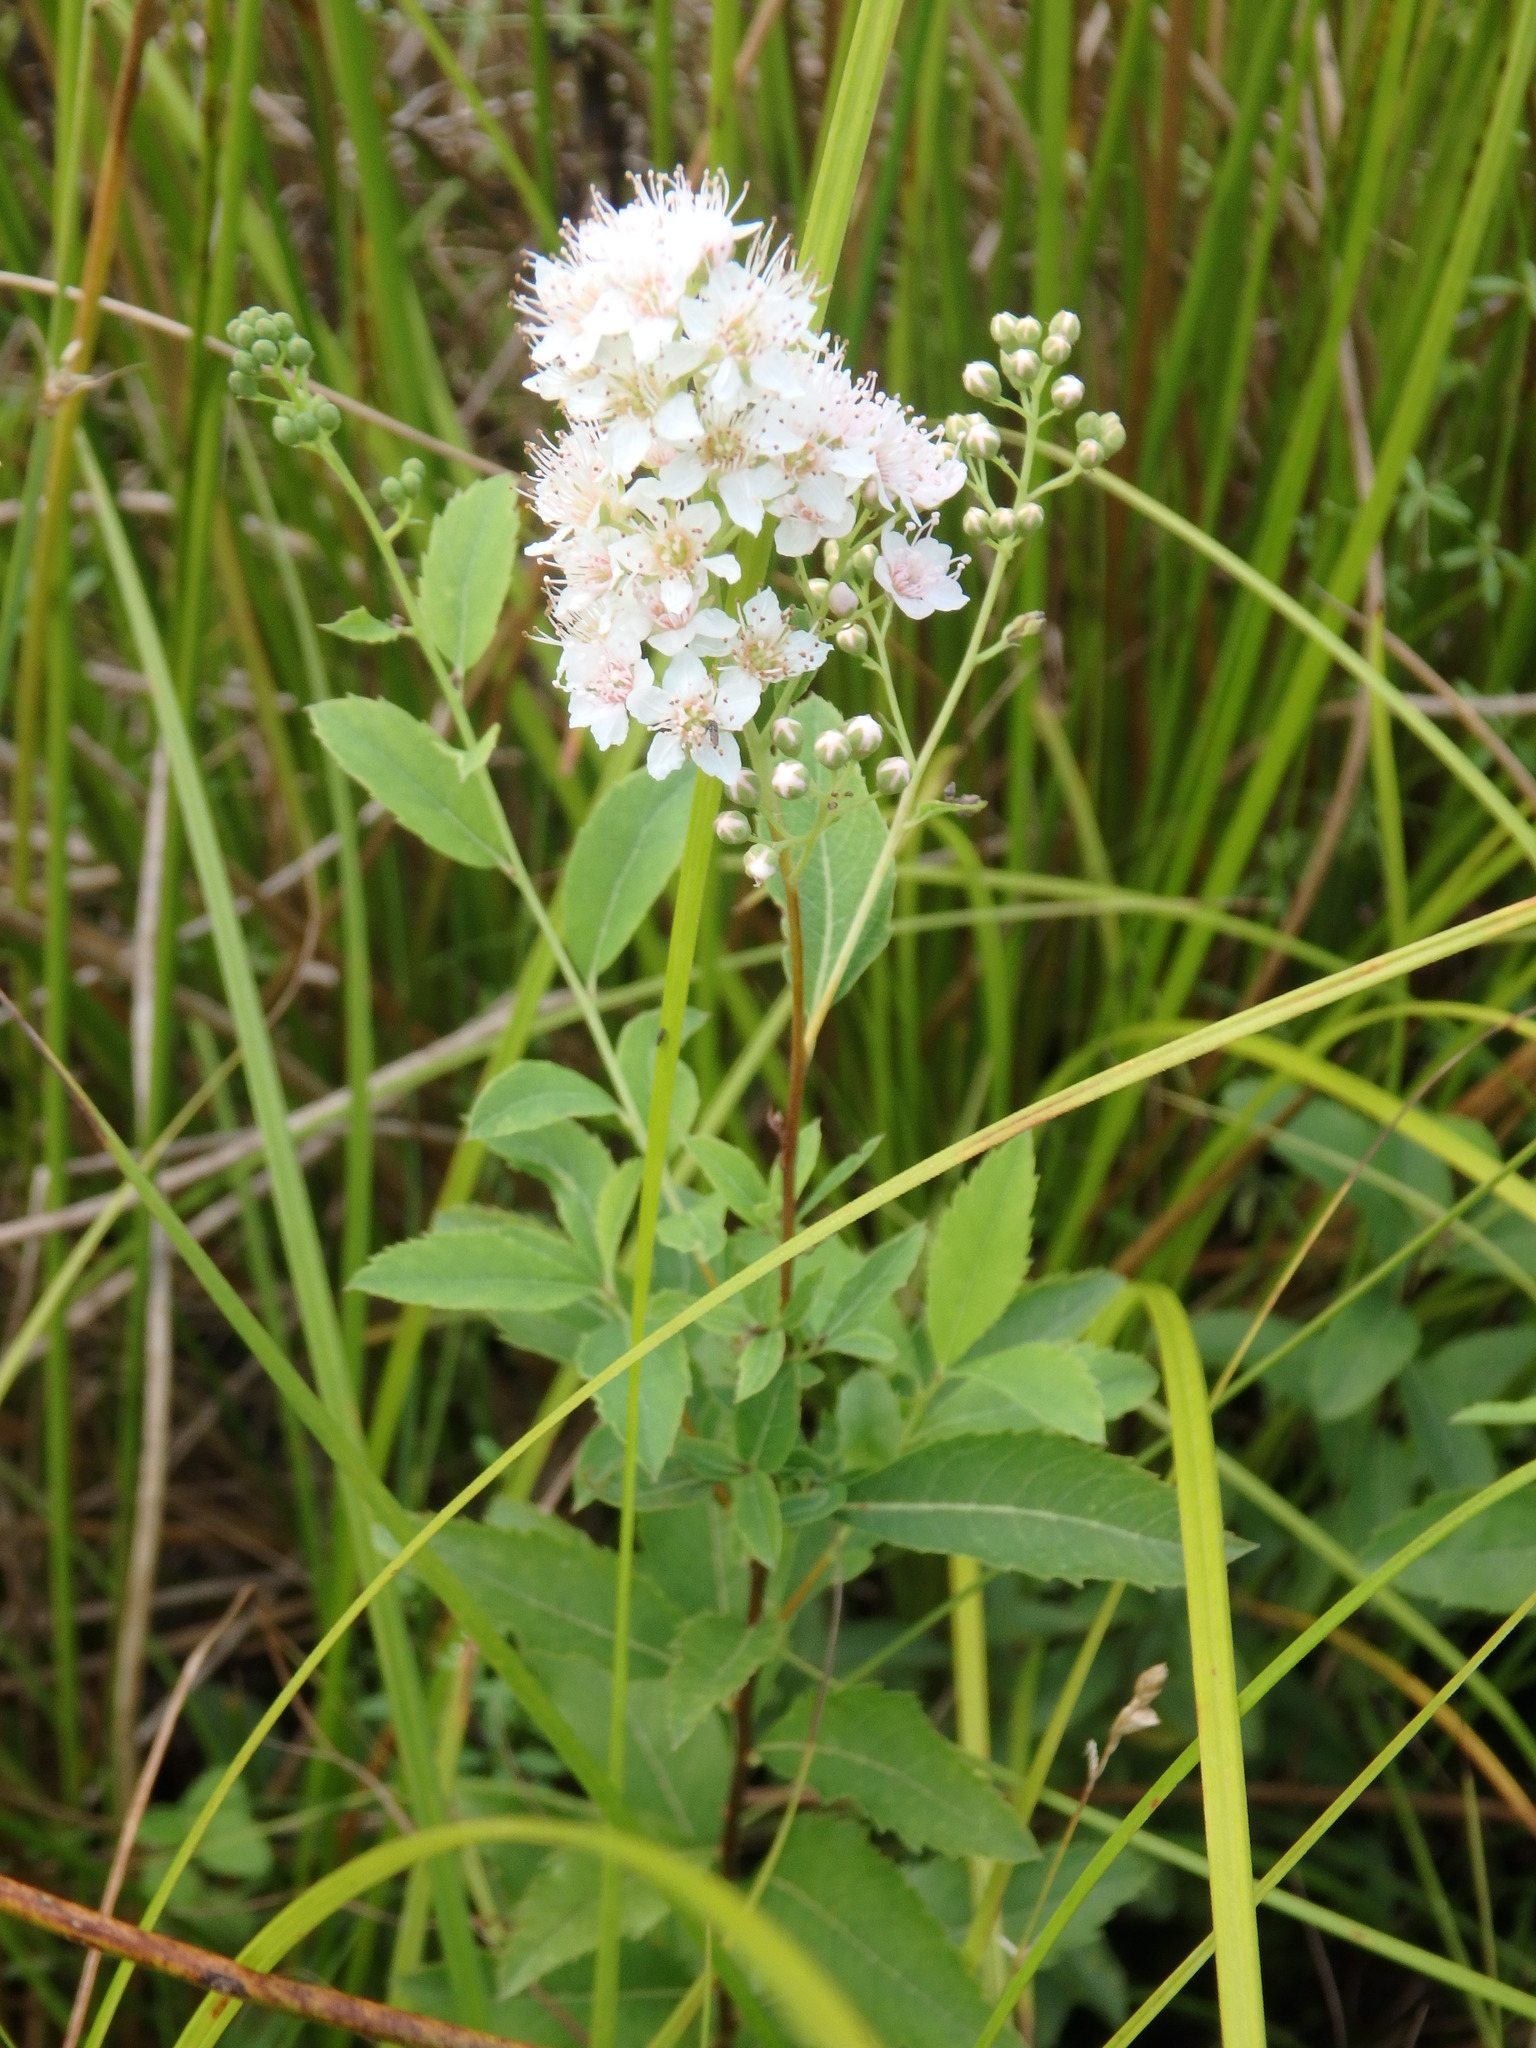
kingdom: Plantae
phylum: Tracheophyta
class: Magnoliopsida
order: Rosales
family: Rosaceae
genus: Spiraea
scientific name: Spiraea alba
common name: Pale bridewort
